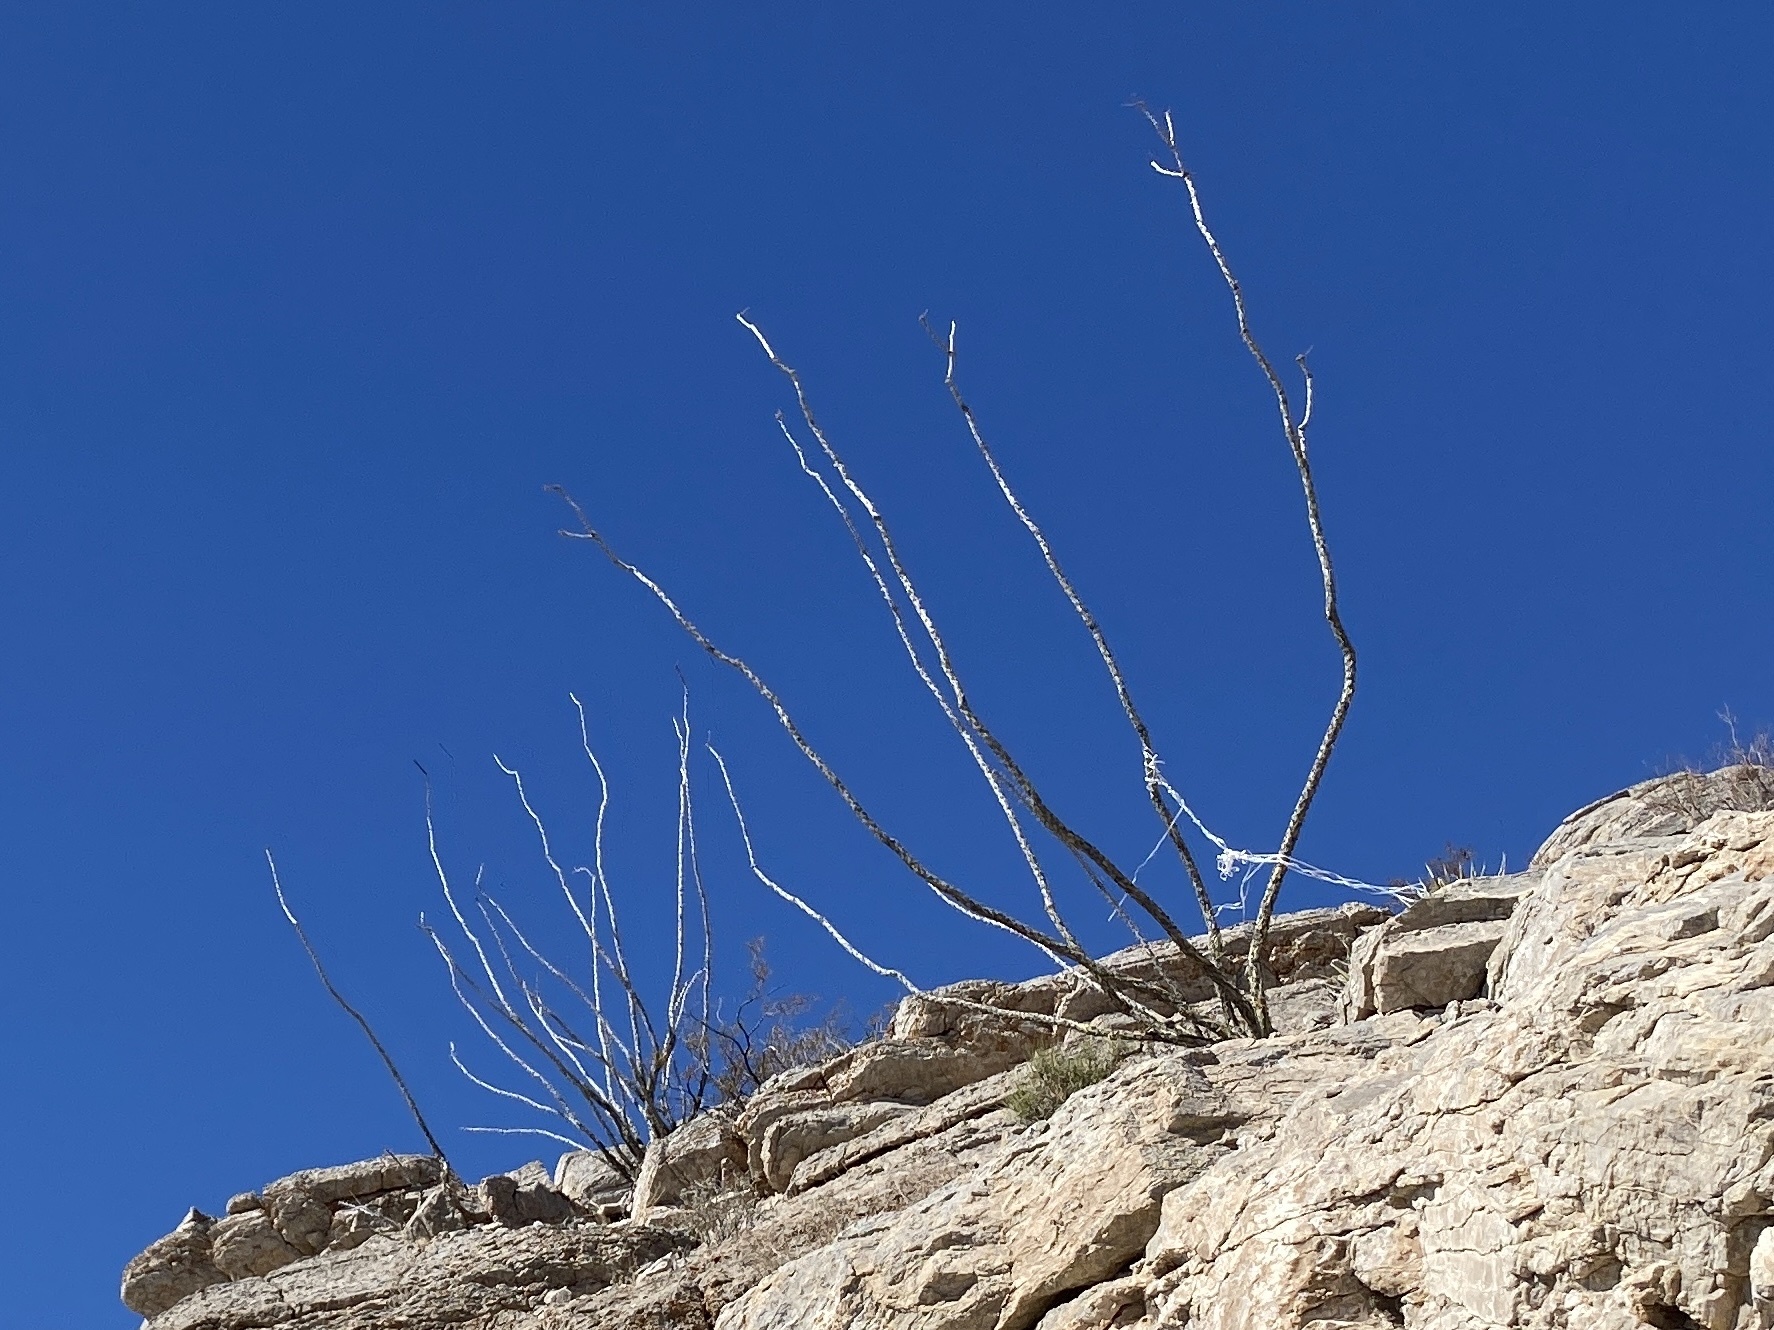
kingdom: Plantae
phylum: Tracheophyta
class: Magnoliopsida
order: Ericales
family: Fouquieriaceae
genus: Fouquieria
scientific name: Fouquieria splendens
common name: Vine-cactus
